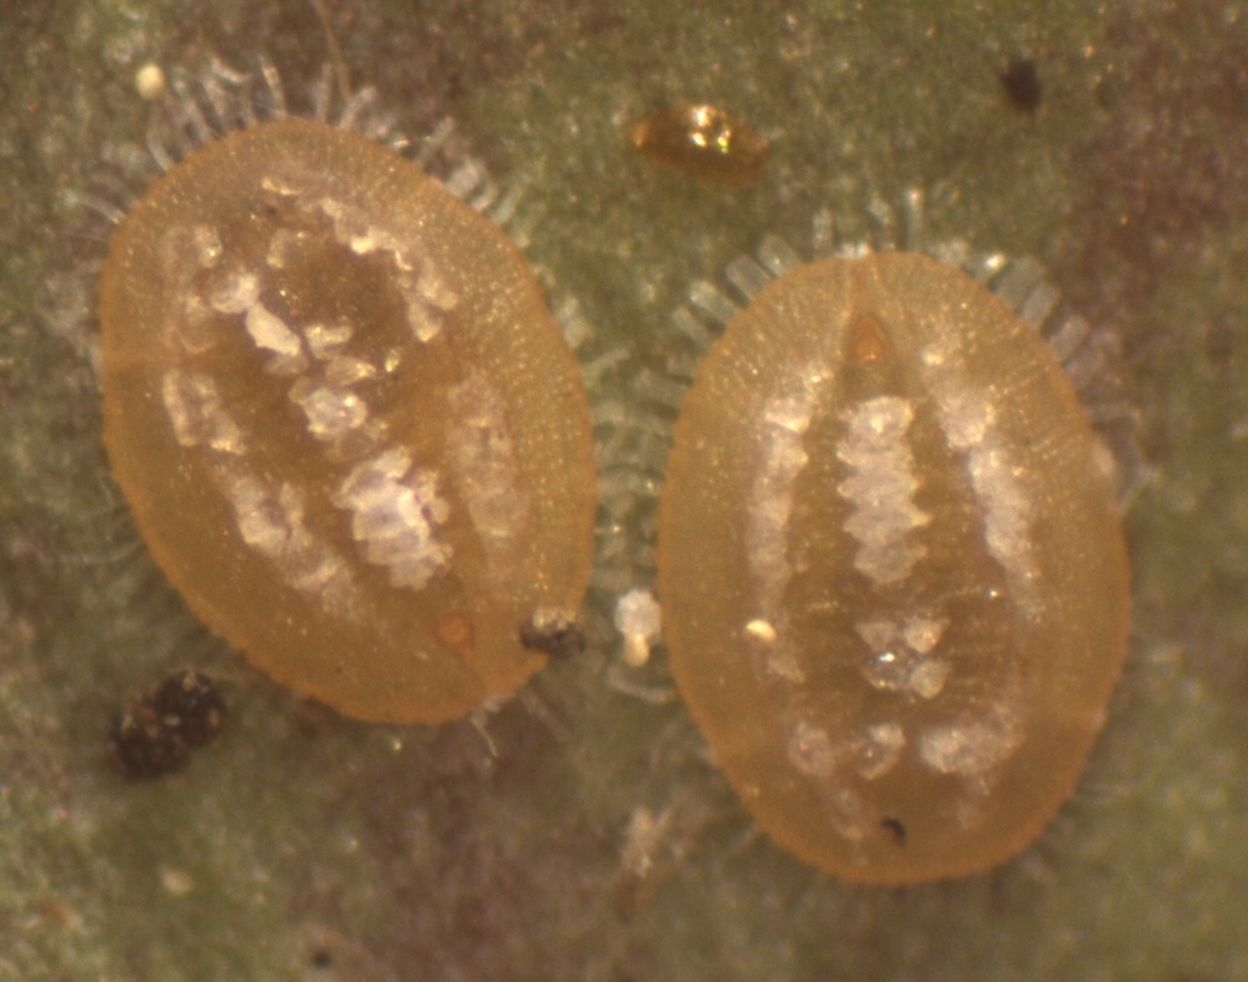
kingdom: Animalia
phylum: Arthropoda
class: Insecta
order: Hemiptera
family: Aleyrodidae
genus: Bemisia
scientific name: Bemisia flocculosa
